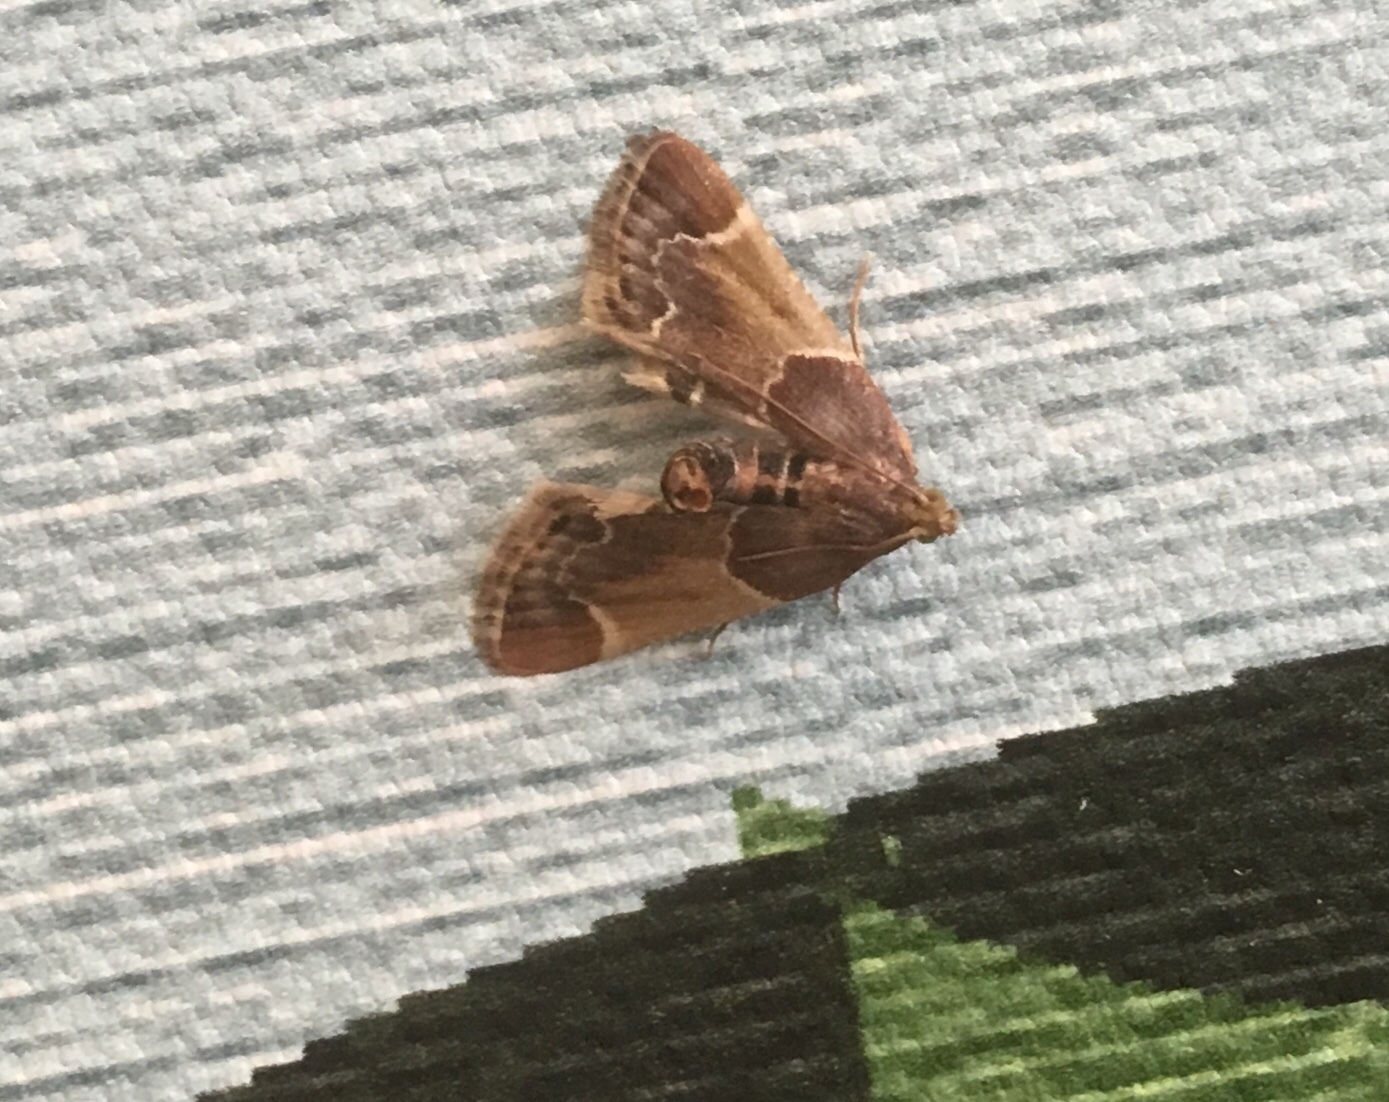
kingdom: Animalia
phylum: Arthropoda
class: Insecta
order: Lepidoptera
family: Pyralidae
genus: Pyralis
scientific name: Pyralis lienigialis
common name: Scarce tabby
